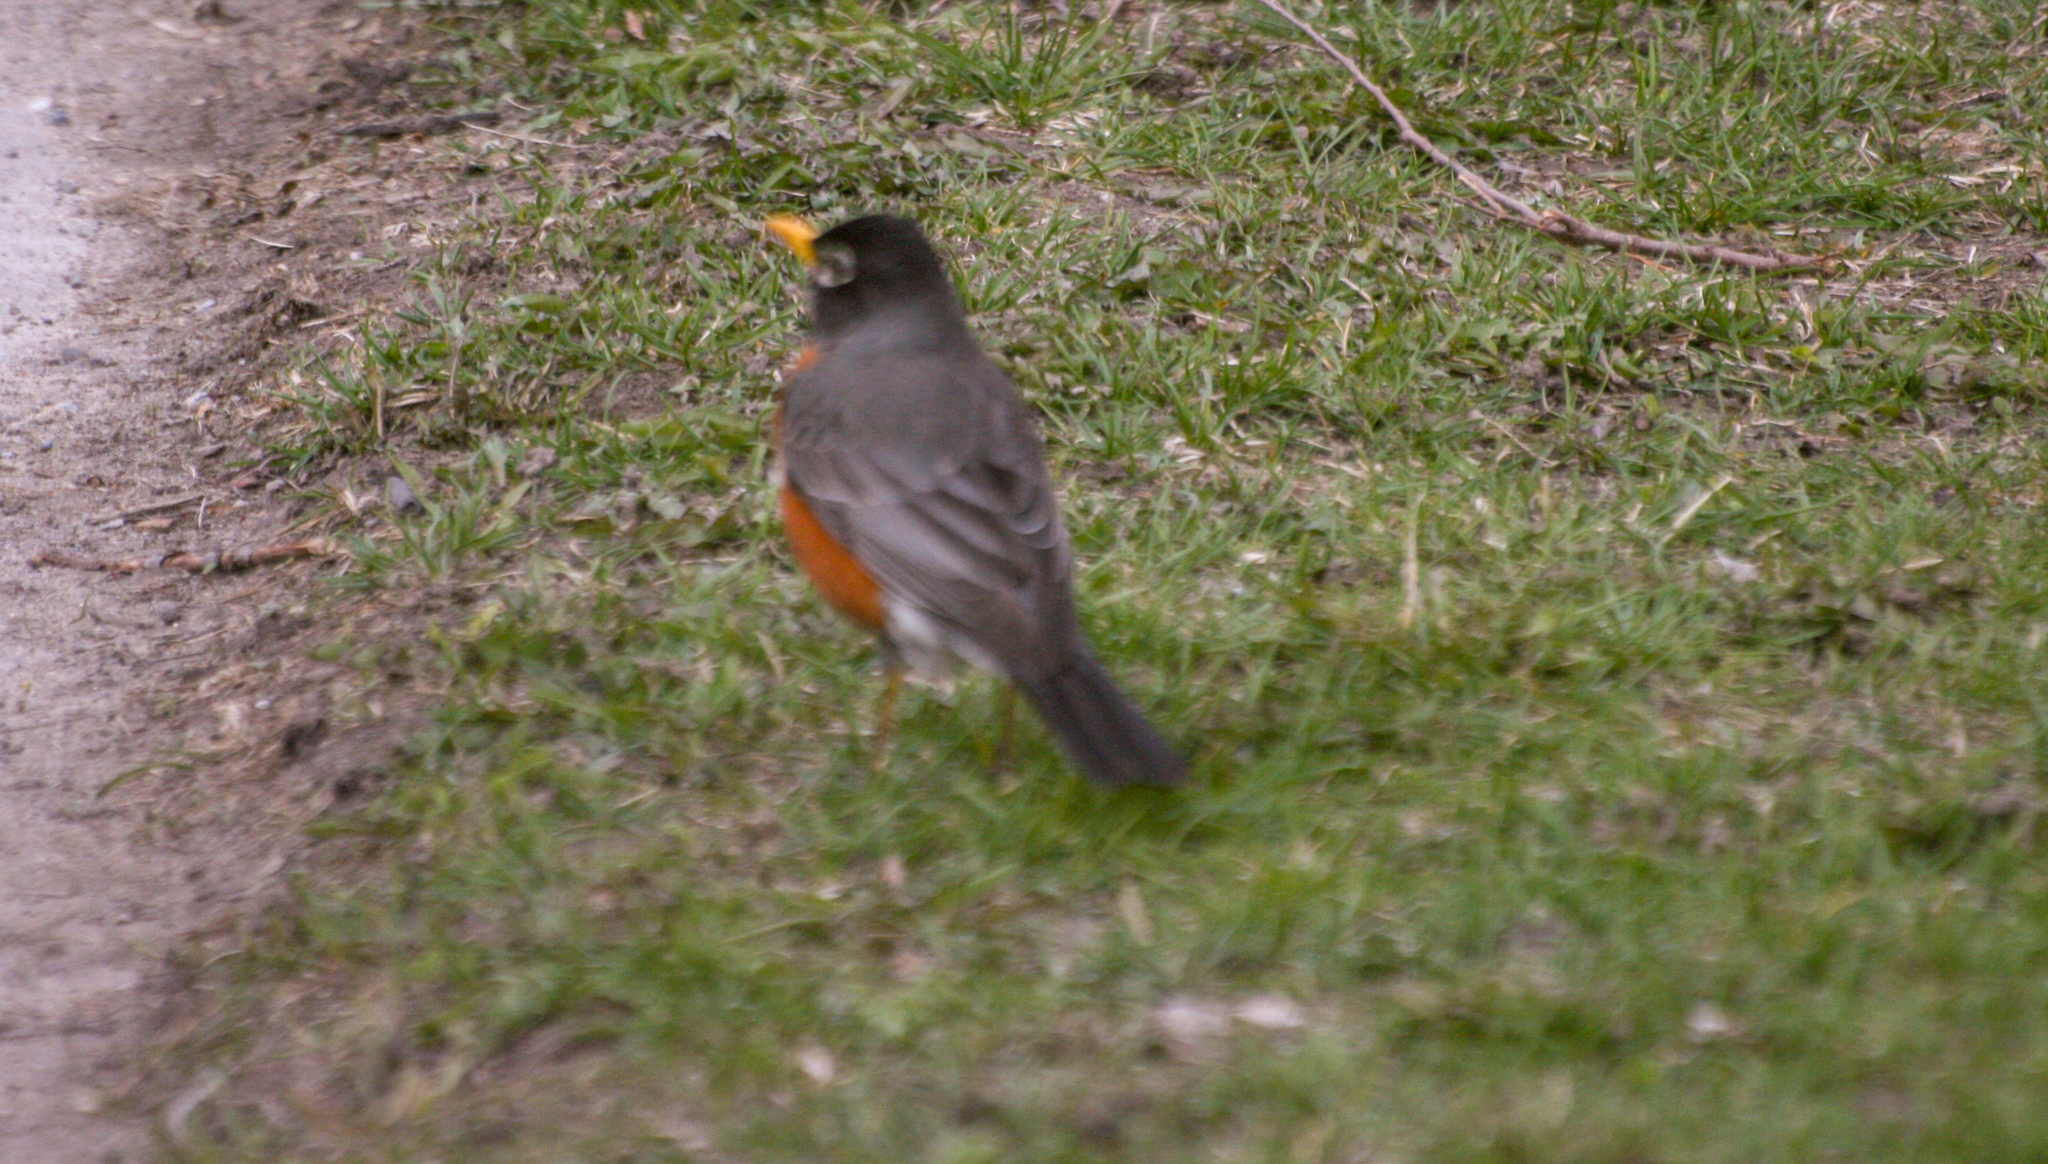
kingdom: Animalia
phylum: Chordata
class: Aves
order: Passeriformes
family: Turdidae
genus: Turdus
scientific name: Turdus migratorius
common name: American robin
